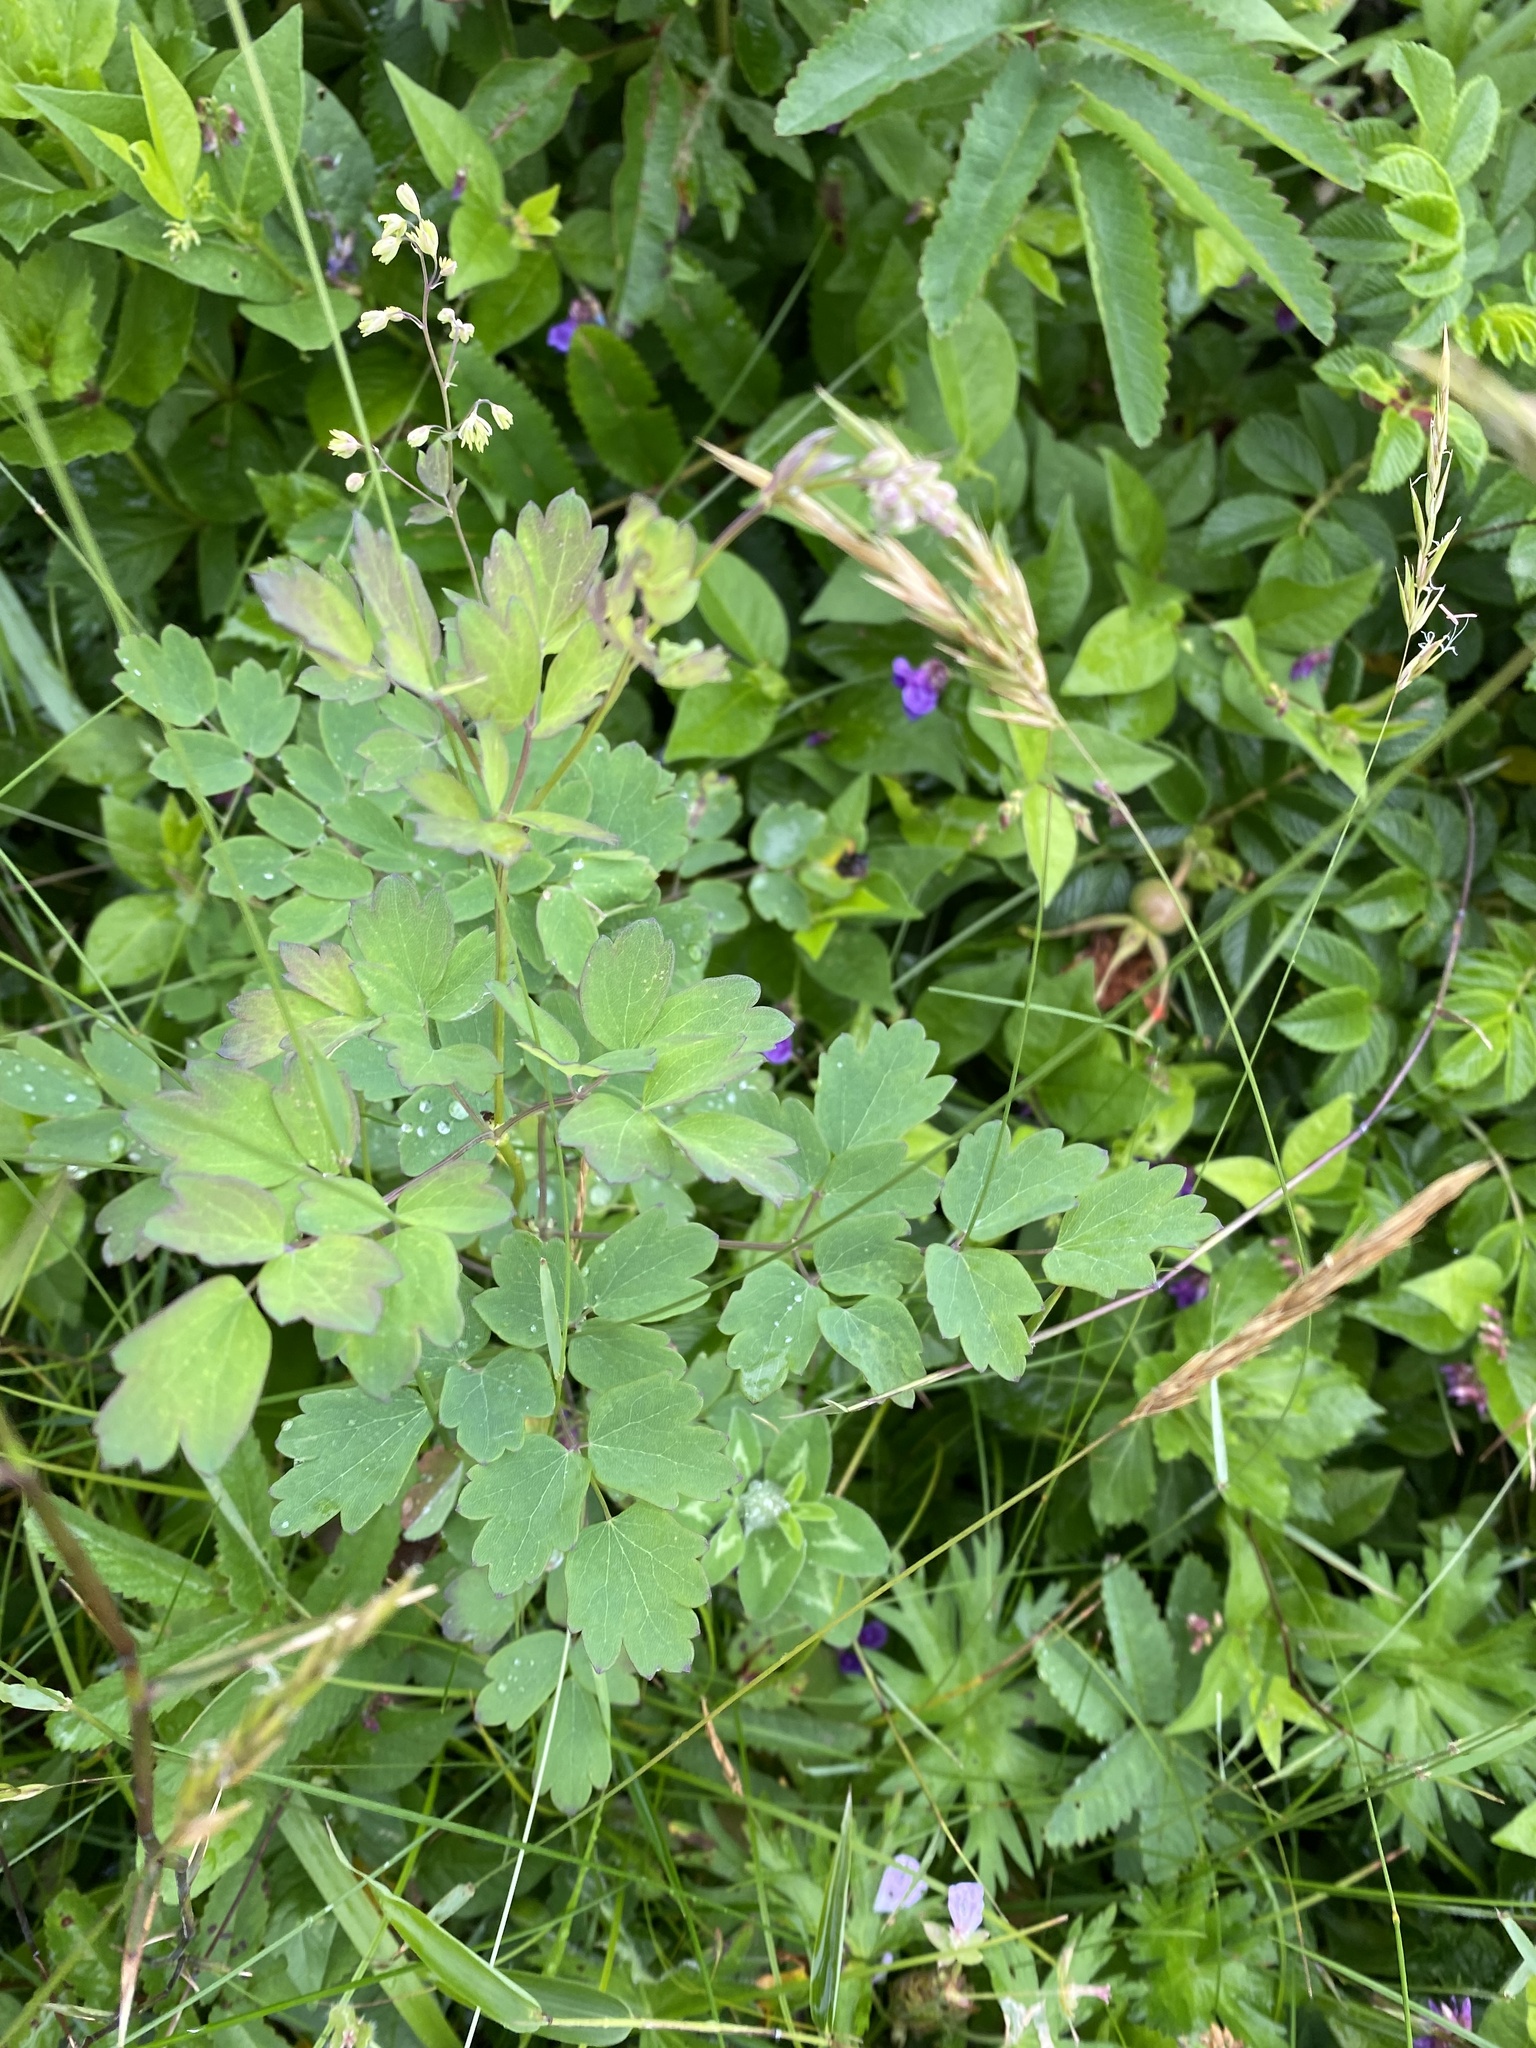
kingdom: Plantae
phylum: Tracheophyta
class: Magnoliopsida
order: Ranunculales
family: Ranunculaceae
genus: Thalictrum
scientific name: Thalictrum minus
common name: Lesser meadow-rue
